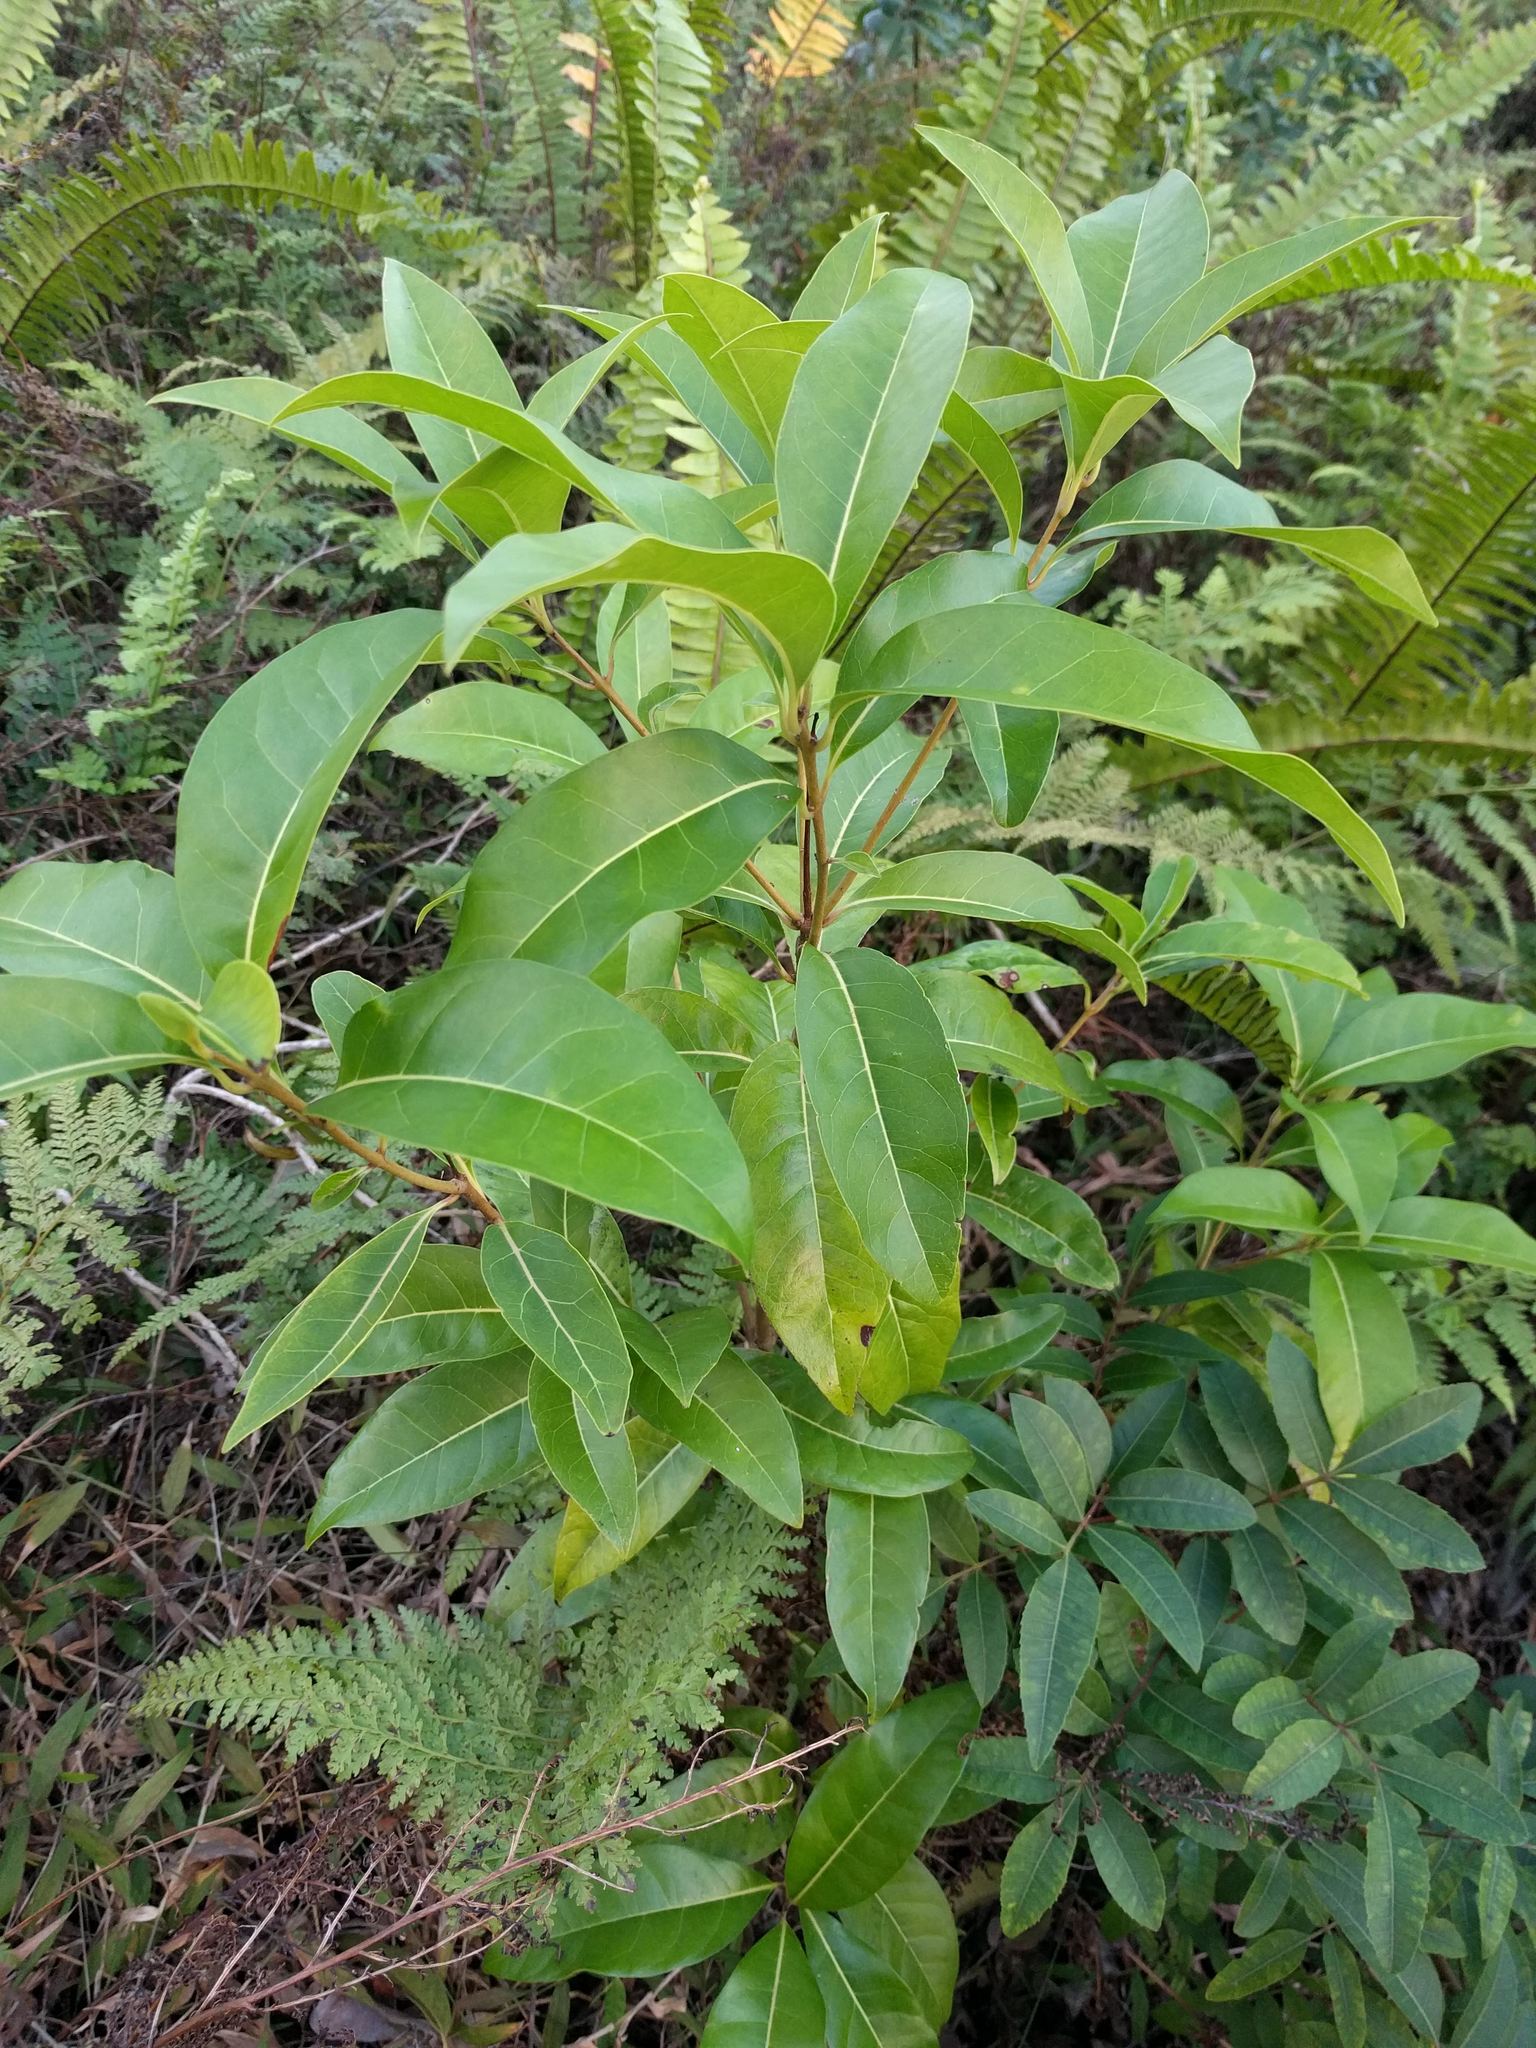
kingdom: Plantae
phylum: Tracheophyta
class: Magnoliopsida
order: Lamiales
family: Oleaceae
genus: Nestegis
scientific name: Nestegis sandwicensis
